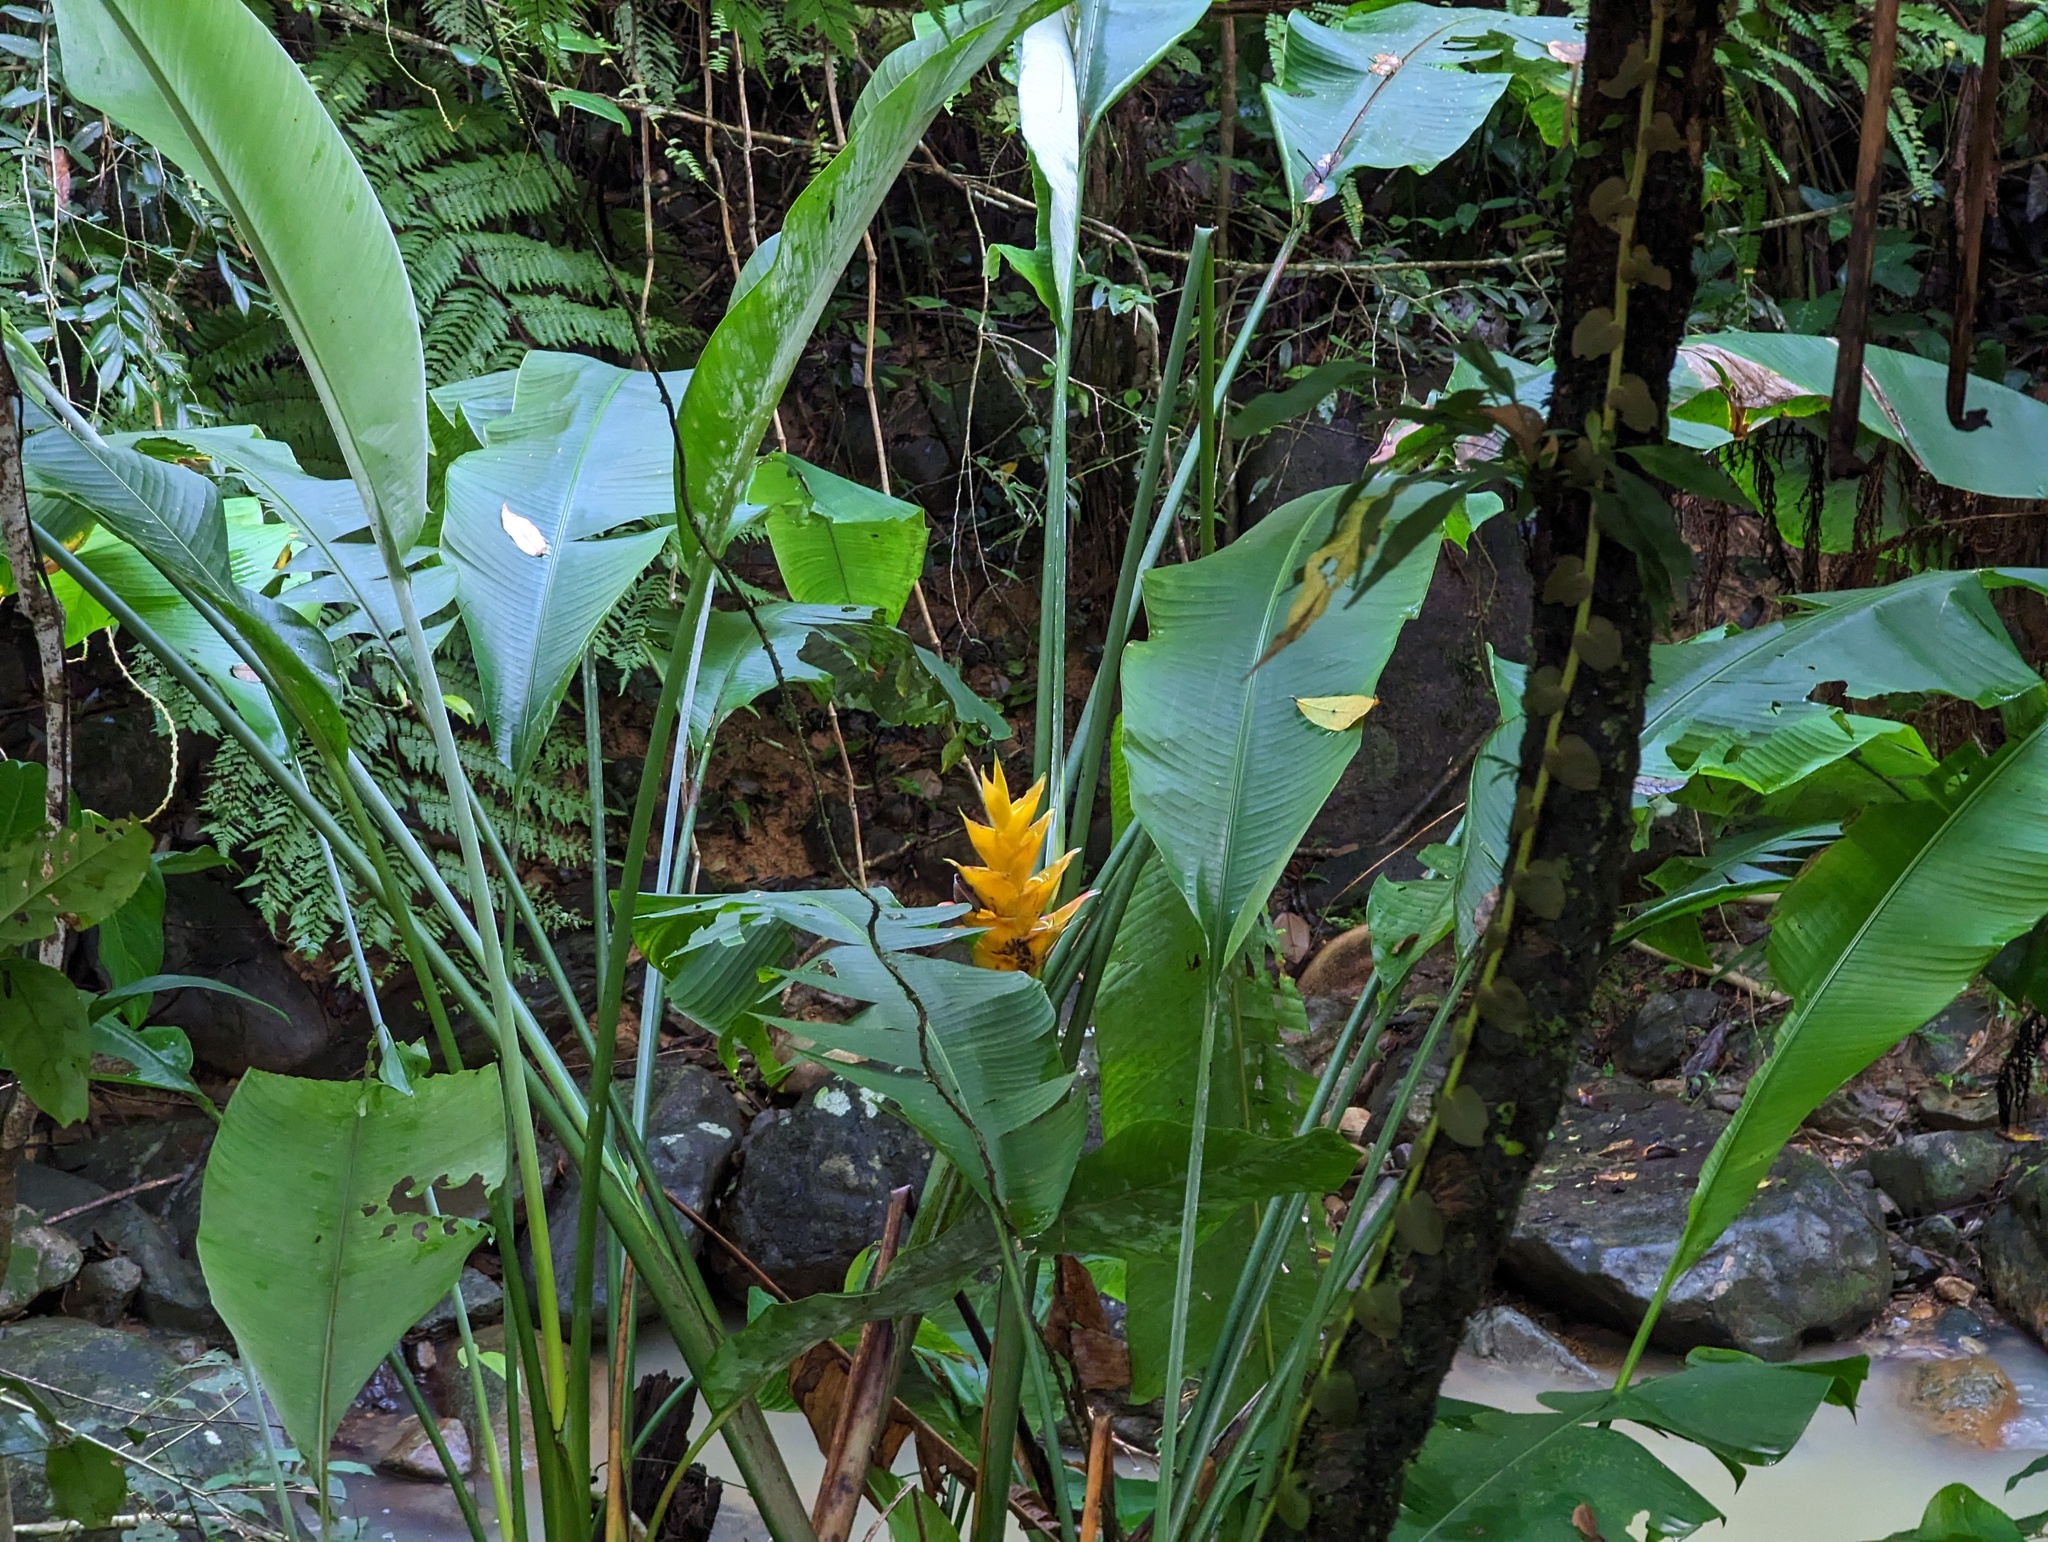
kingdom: Plantae
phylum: Tracheophyta
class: Liliopsida
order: Zingiberales
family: Heliconiaceae
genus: Heliconia
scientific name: Heliconia caribaea
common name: Wild plantain
